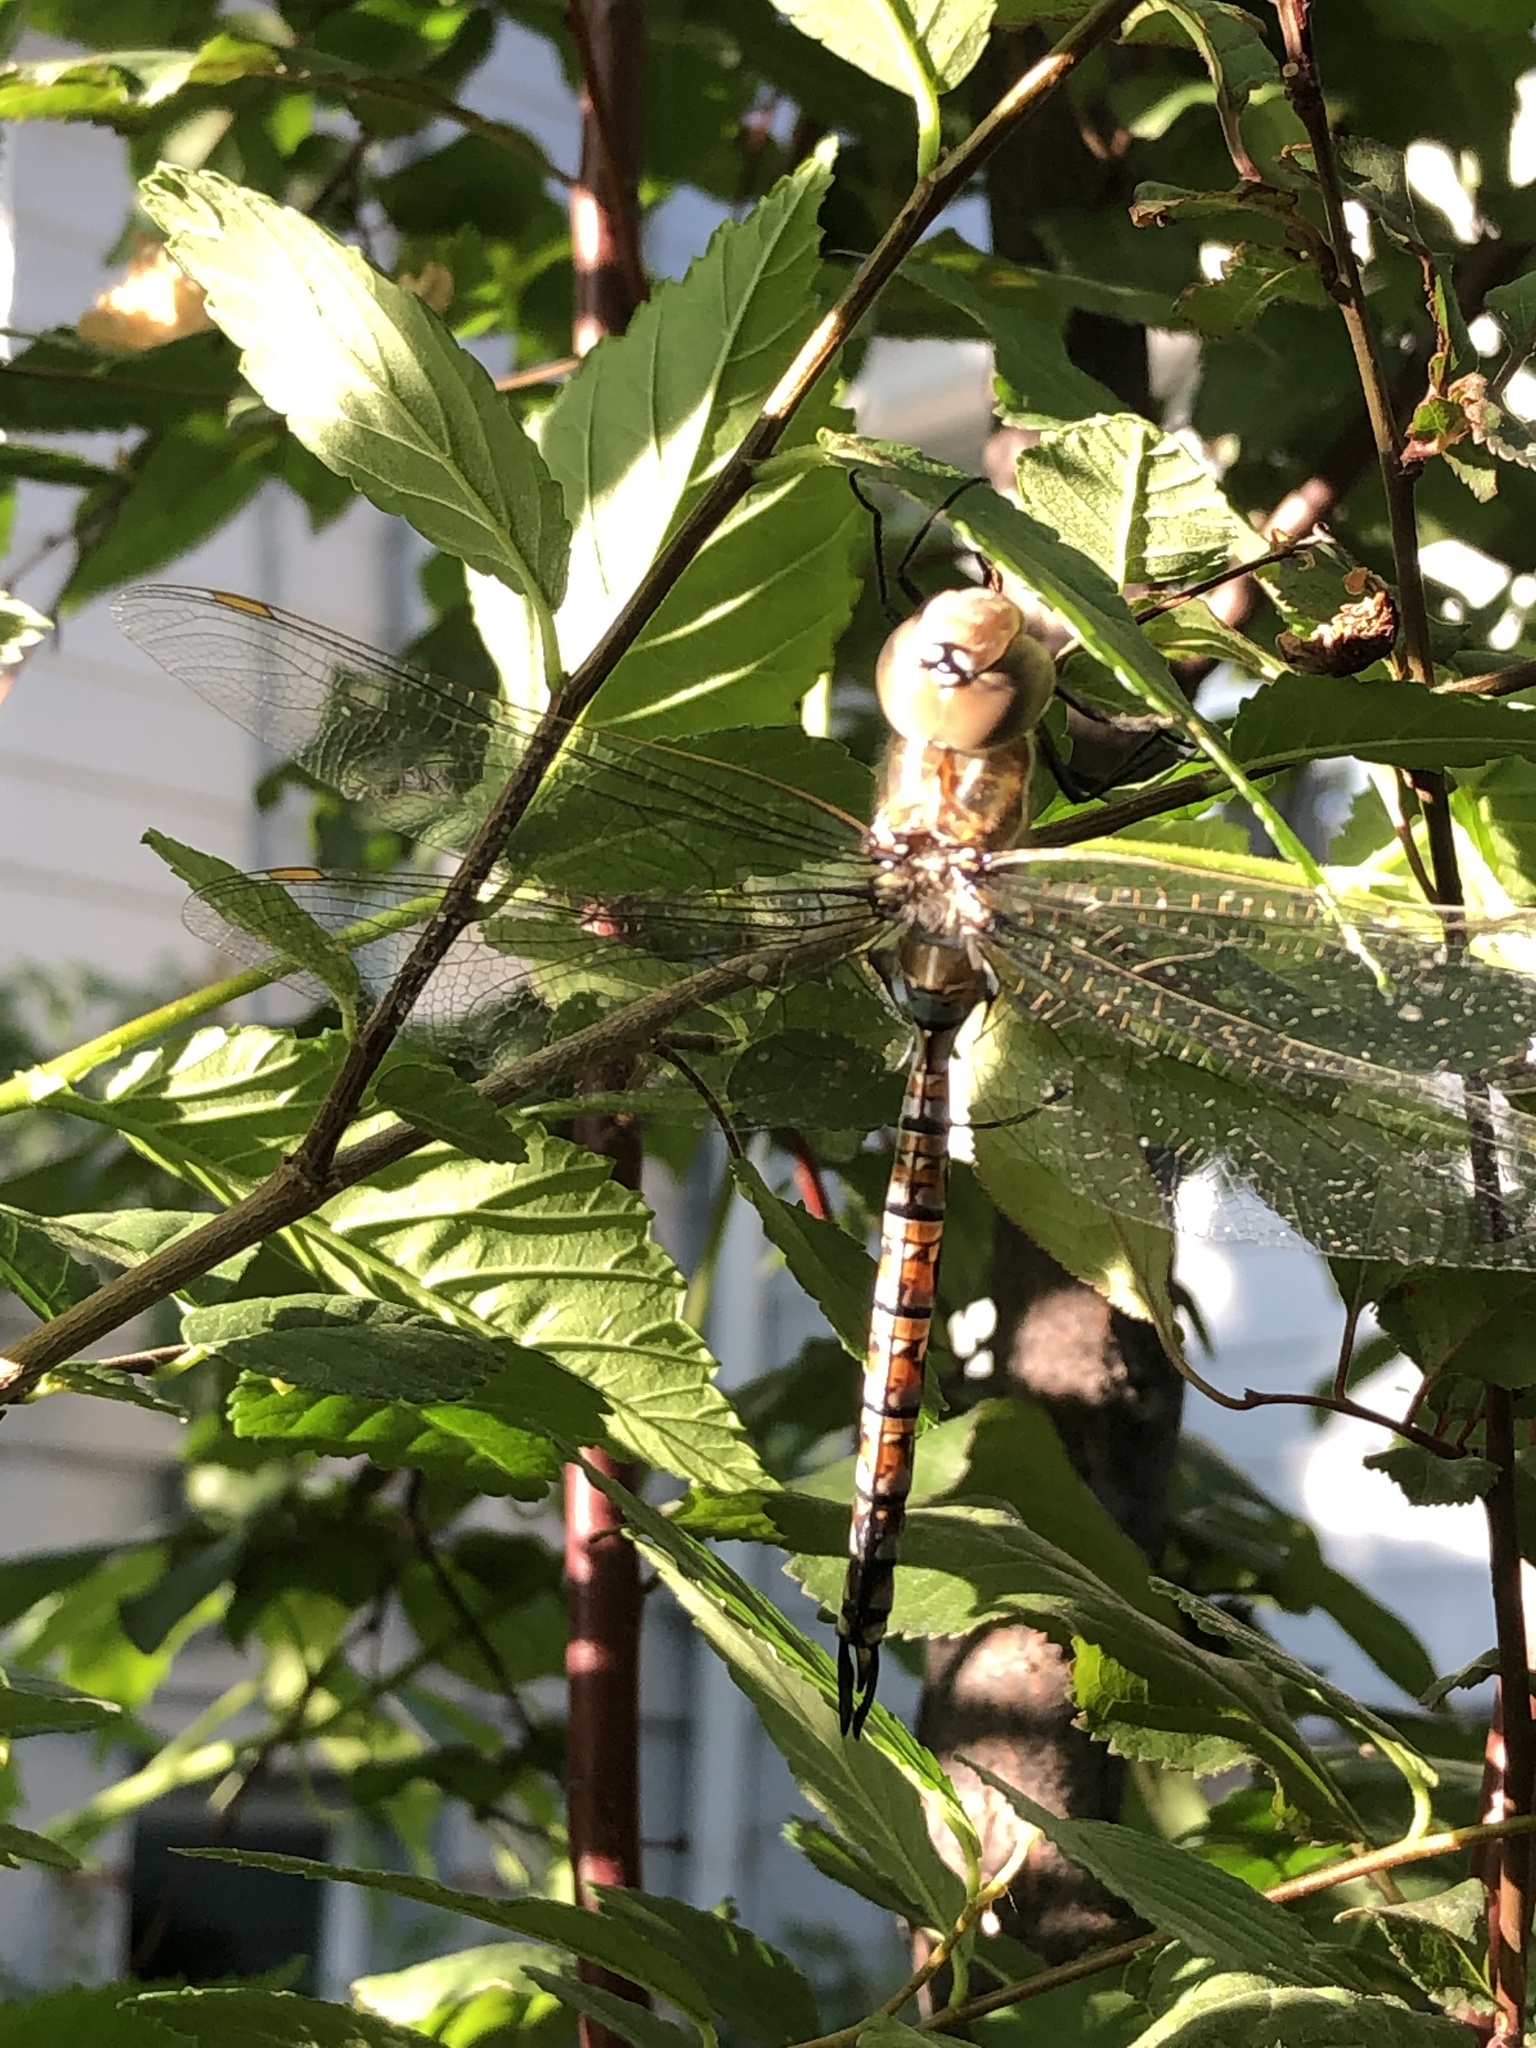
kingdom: Animalia
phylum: Arthropoda
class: Insecta
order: Odonata
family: Aeshnidae
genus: Rhionaeschna
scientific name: Rhionaeschna multicolor
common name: Blue-eyed darner
